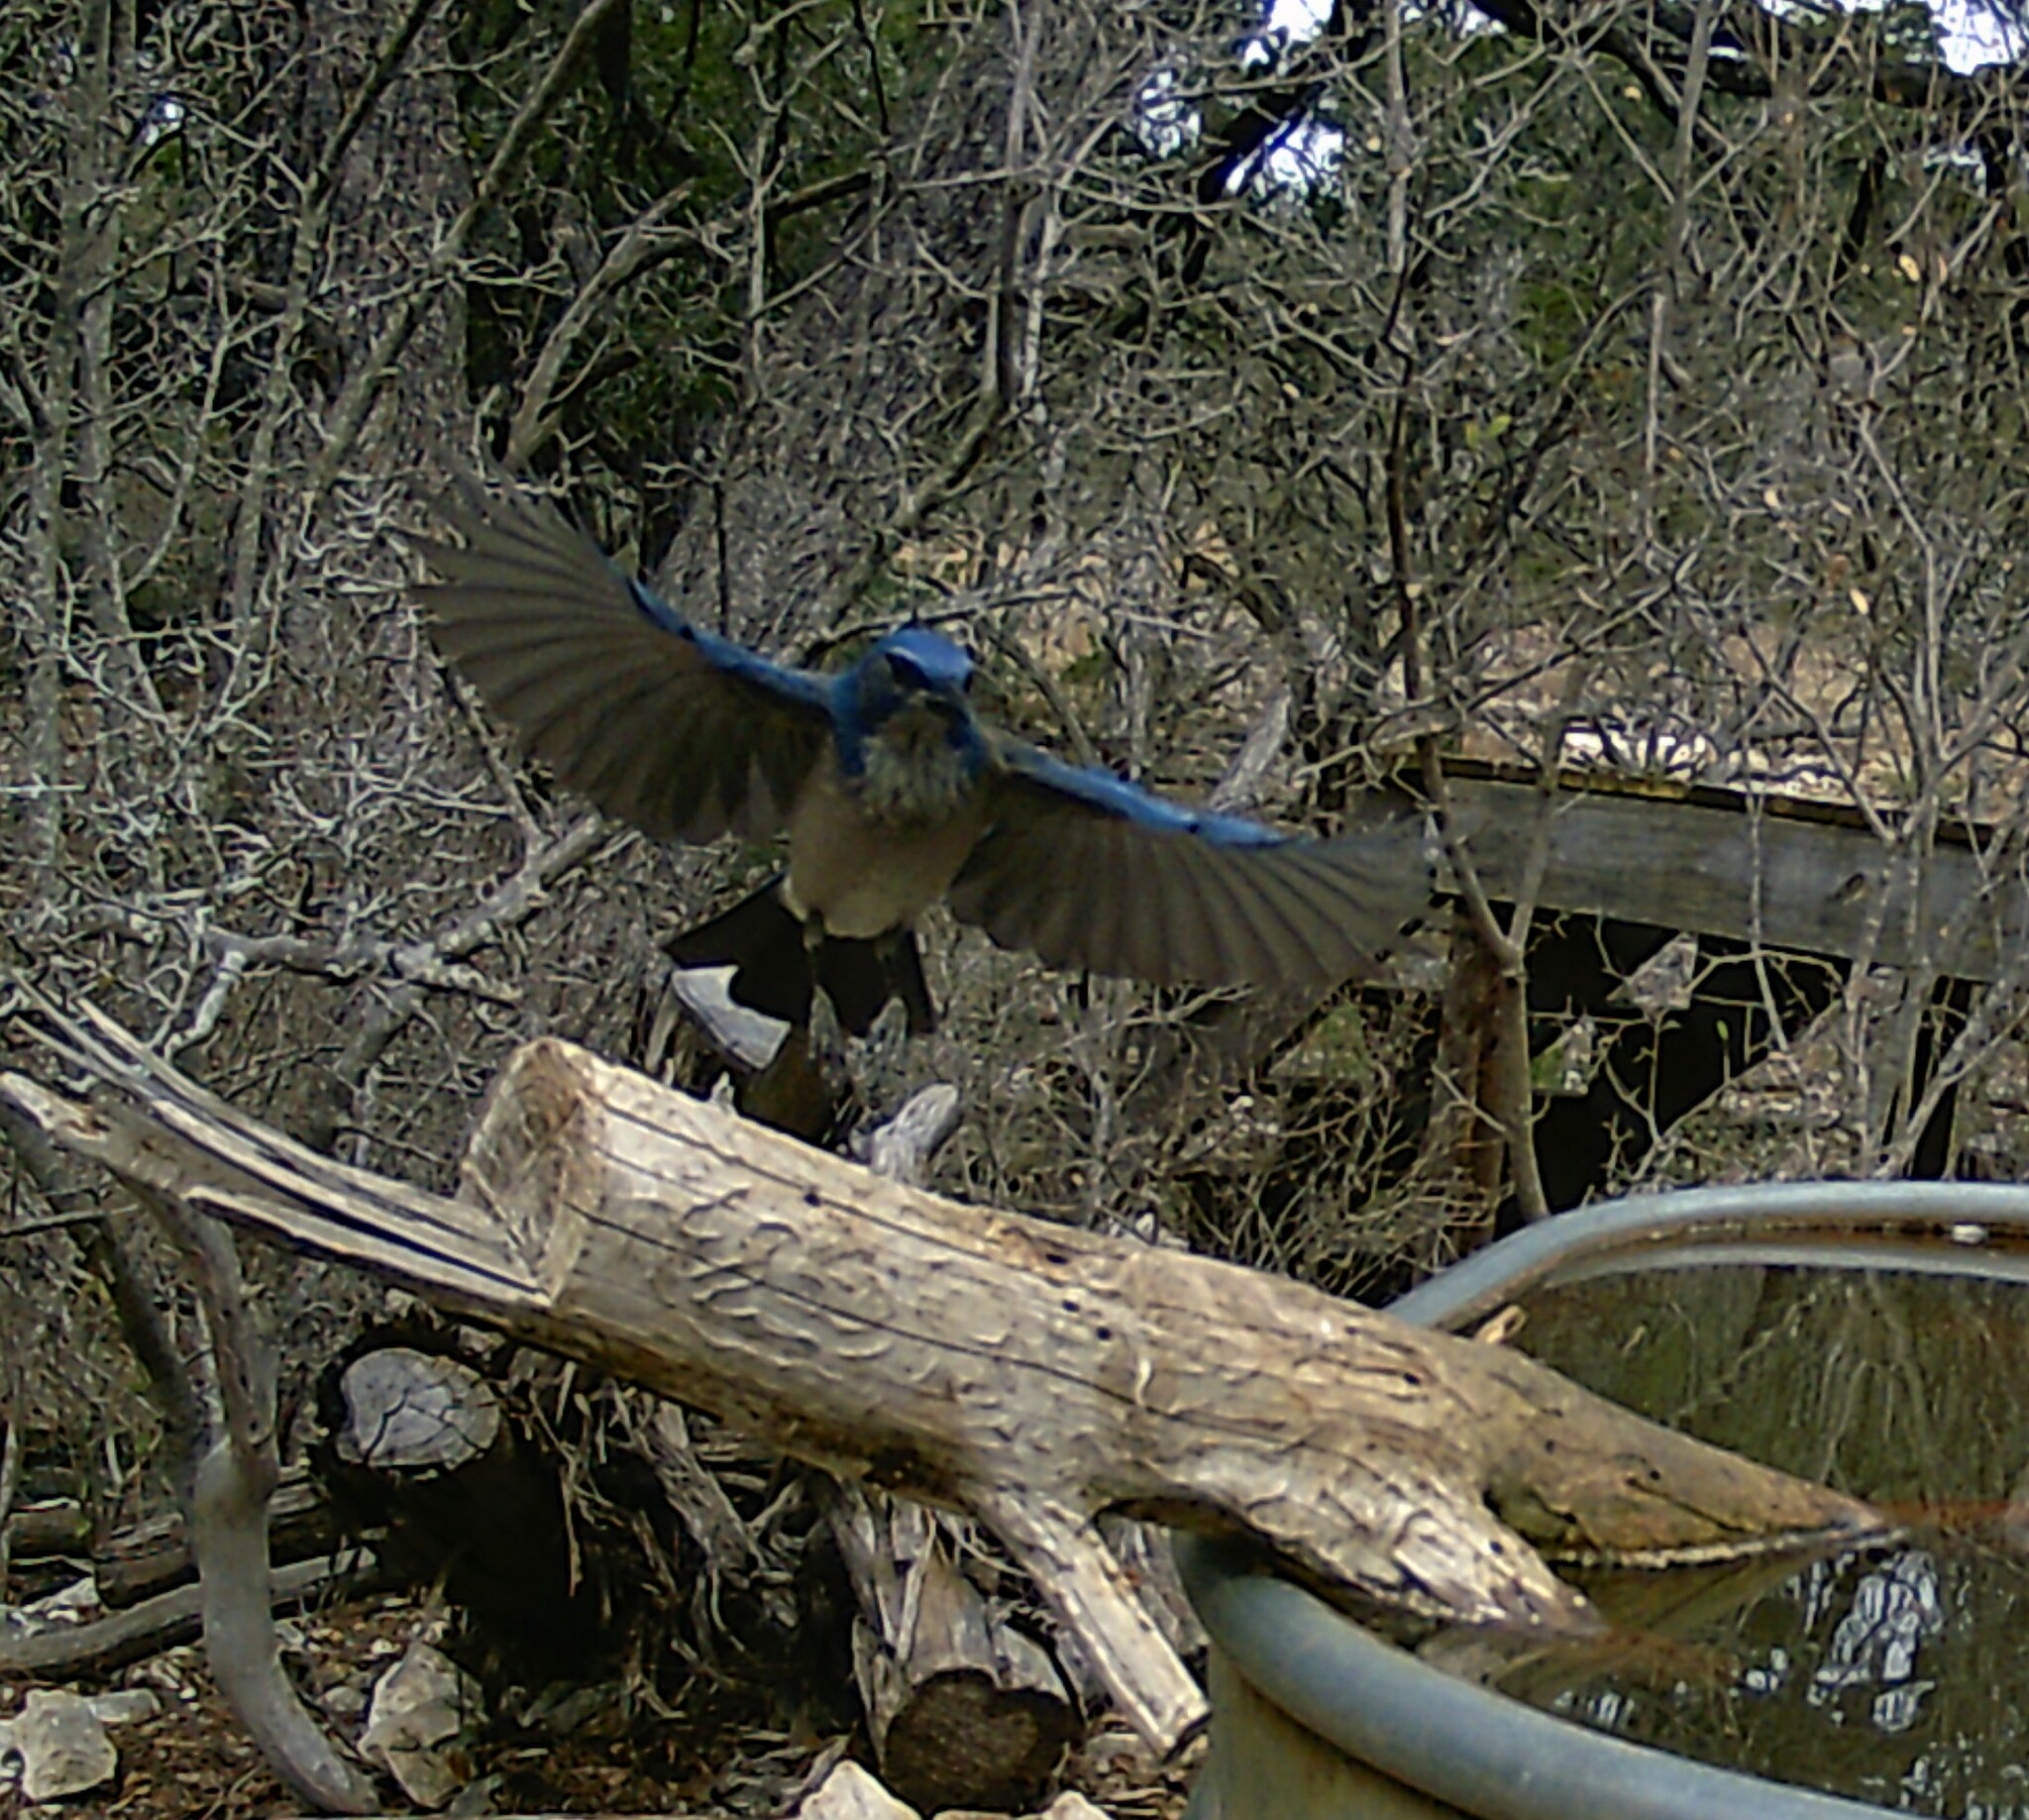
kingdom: Animalia
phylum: Chordata
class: Aves
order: Passeriformes
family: Corvidae
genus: Aphelocoma
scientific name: Aphelocoma woodhouseii
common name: Woodhouse's scrub-jay
